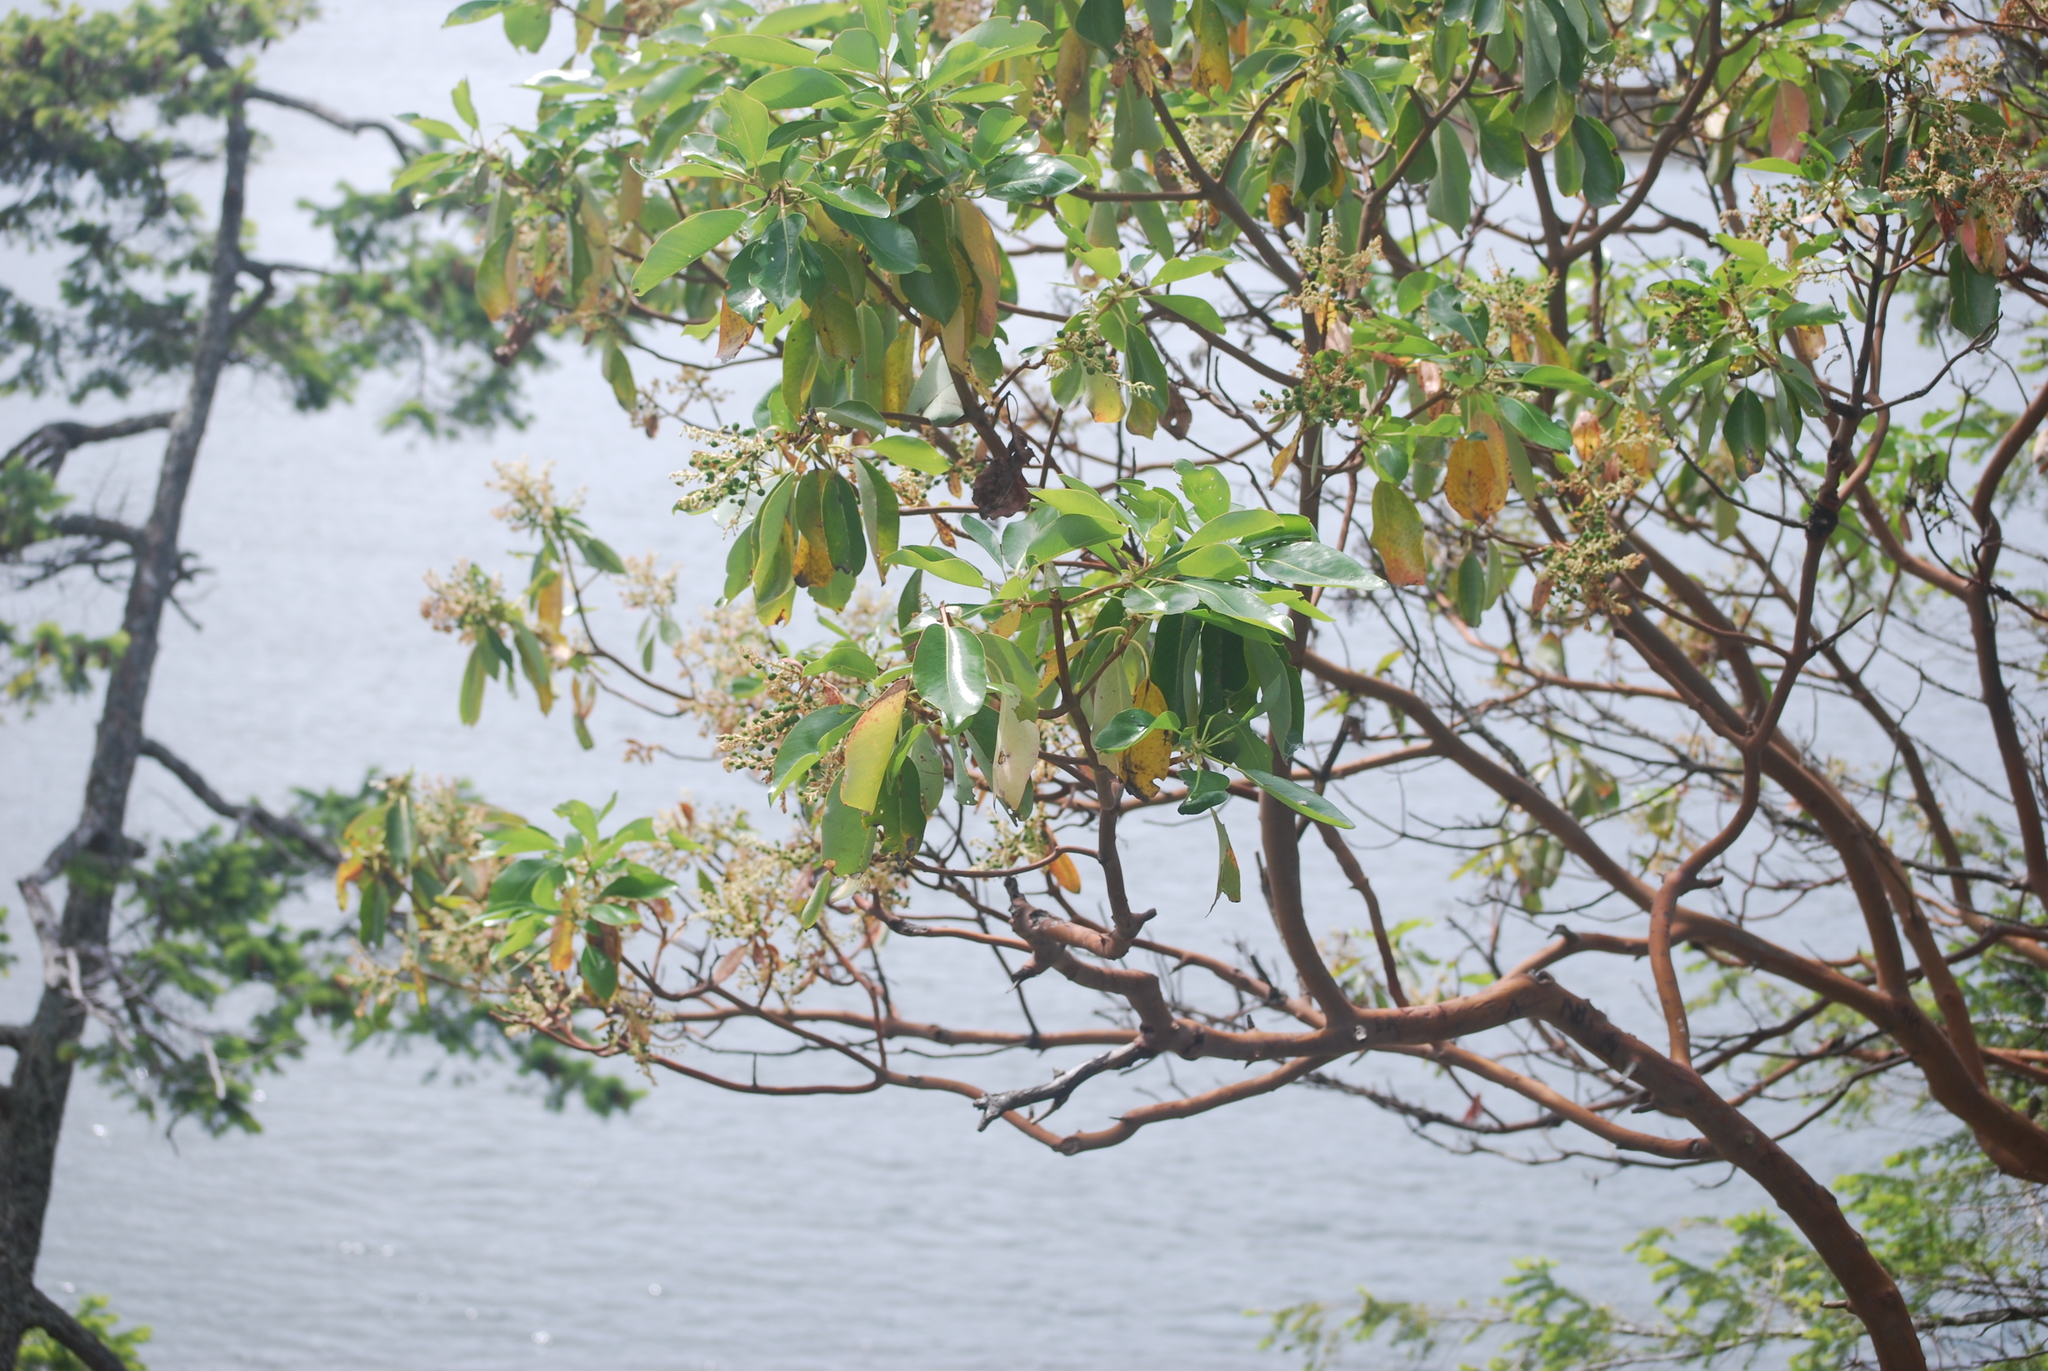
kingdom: Plantae
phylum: Tracheophyta
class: Magnoliopsida
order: Ericales
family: Ericaceae
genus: Arbutus
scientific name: Arbutus menziesii
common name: Pacific madrone
